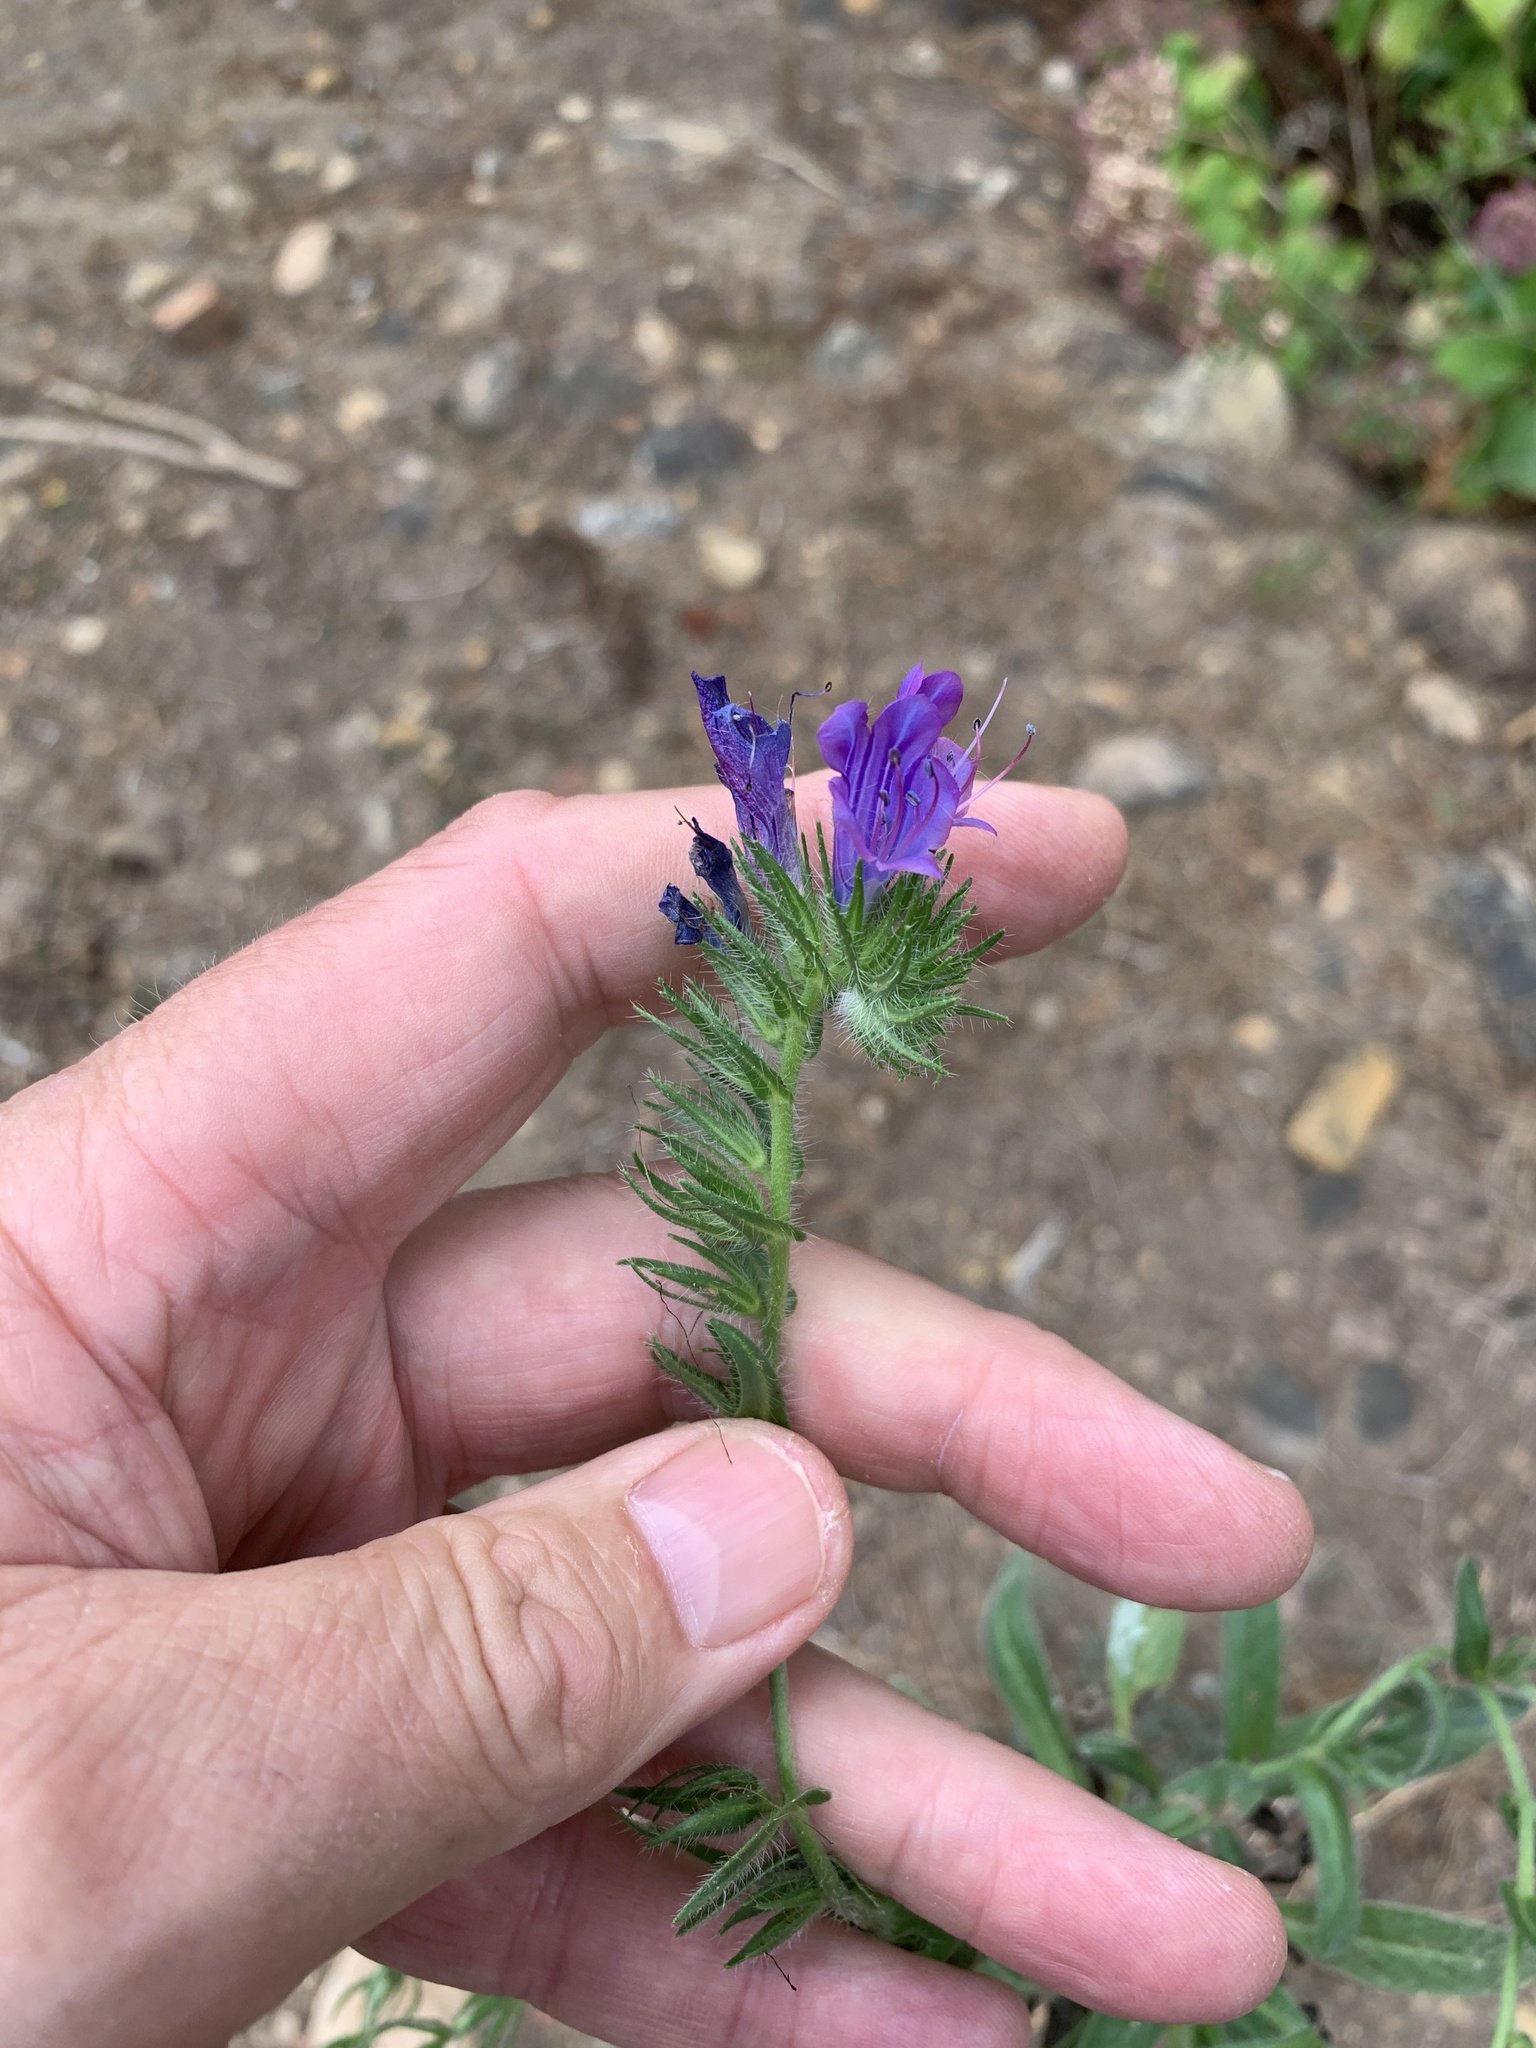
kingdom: Plantae
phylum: Tracheophyta
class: Magnoliopsida
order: Boraginales
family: Boraginaceae
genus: Echium
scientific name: Echium plantagineum
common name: Purple viper's-bugloss
